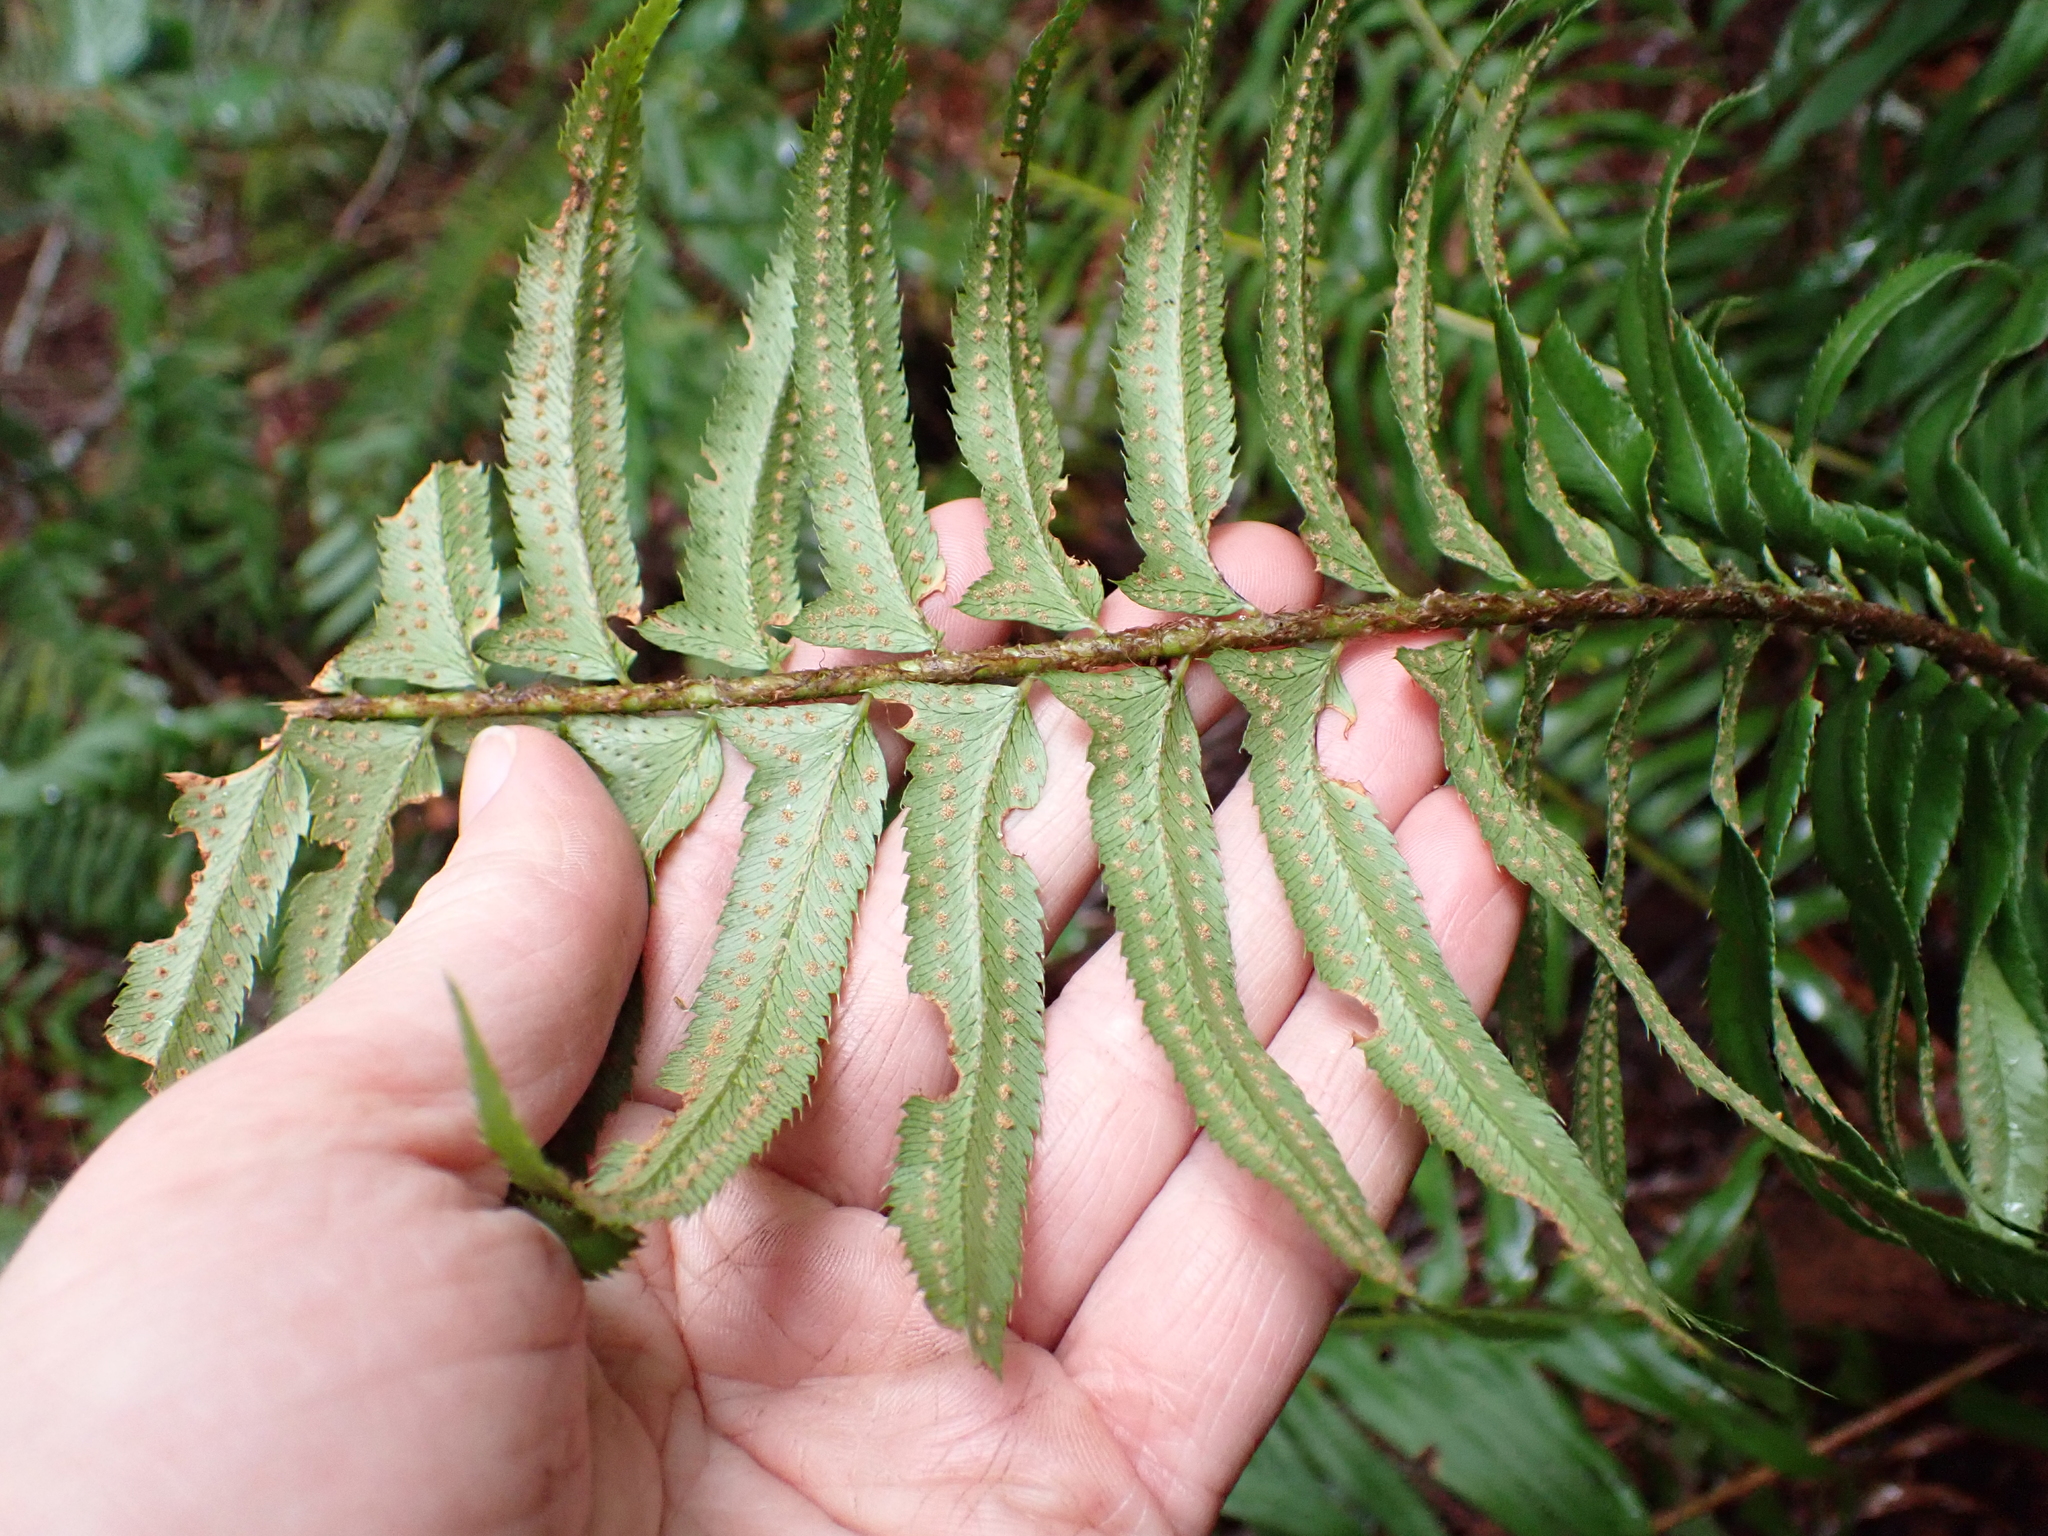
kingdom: Plantae
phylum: Tracheophyta
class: Polypodiopsida
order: Polypodiales
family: Dryopteridaceae
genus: Polystichum
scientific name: Polystichum munitum
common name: Western sword-fern
